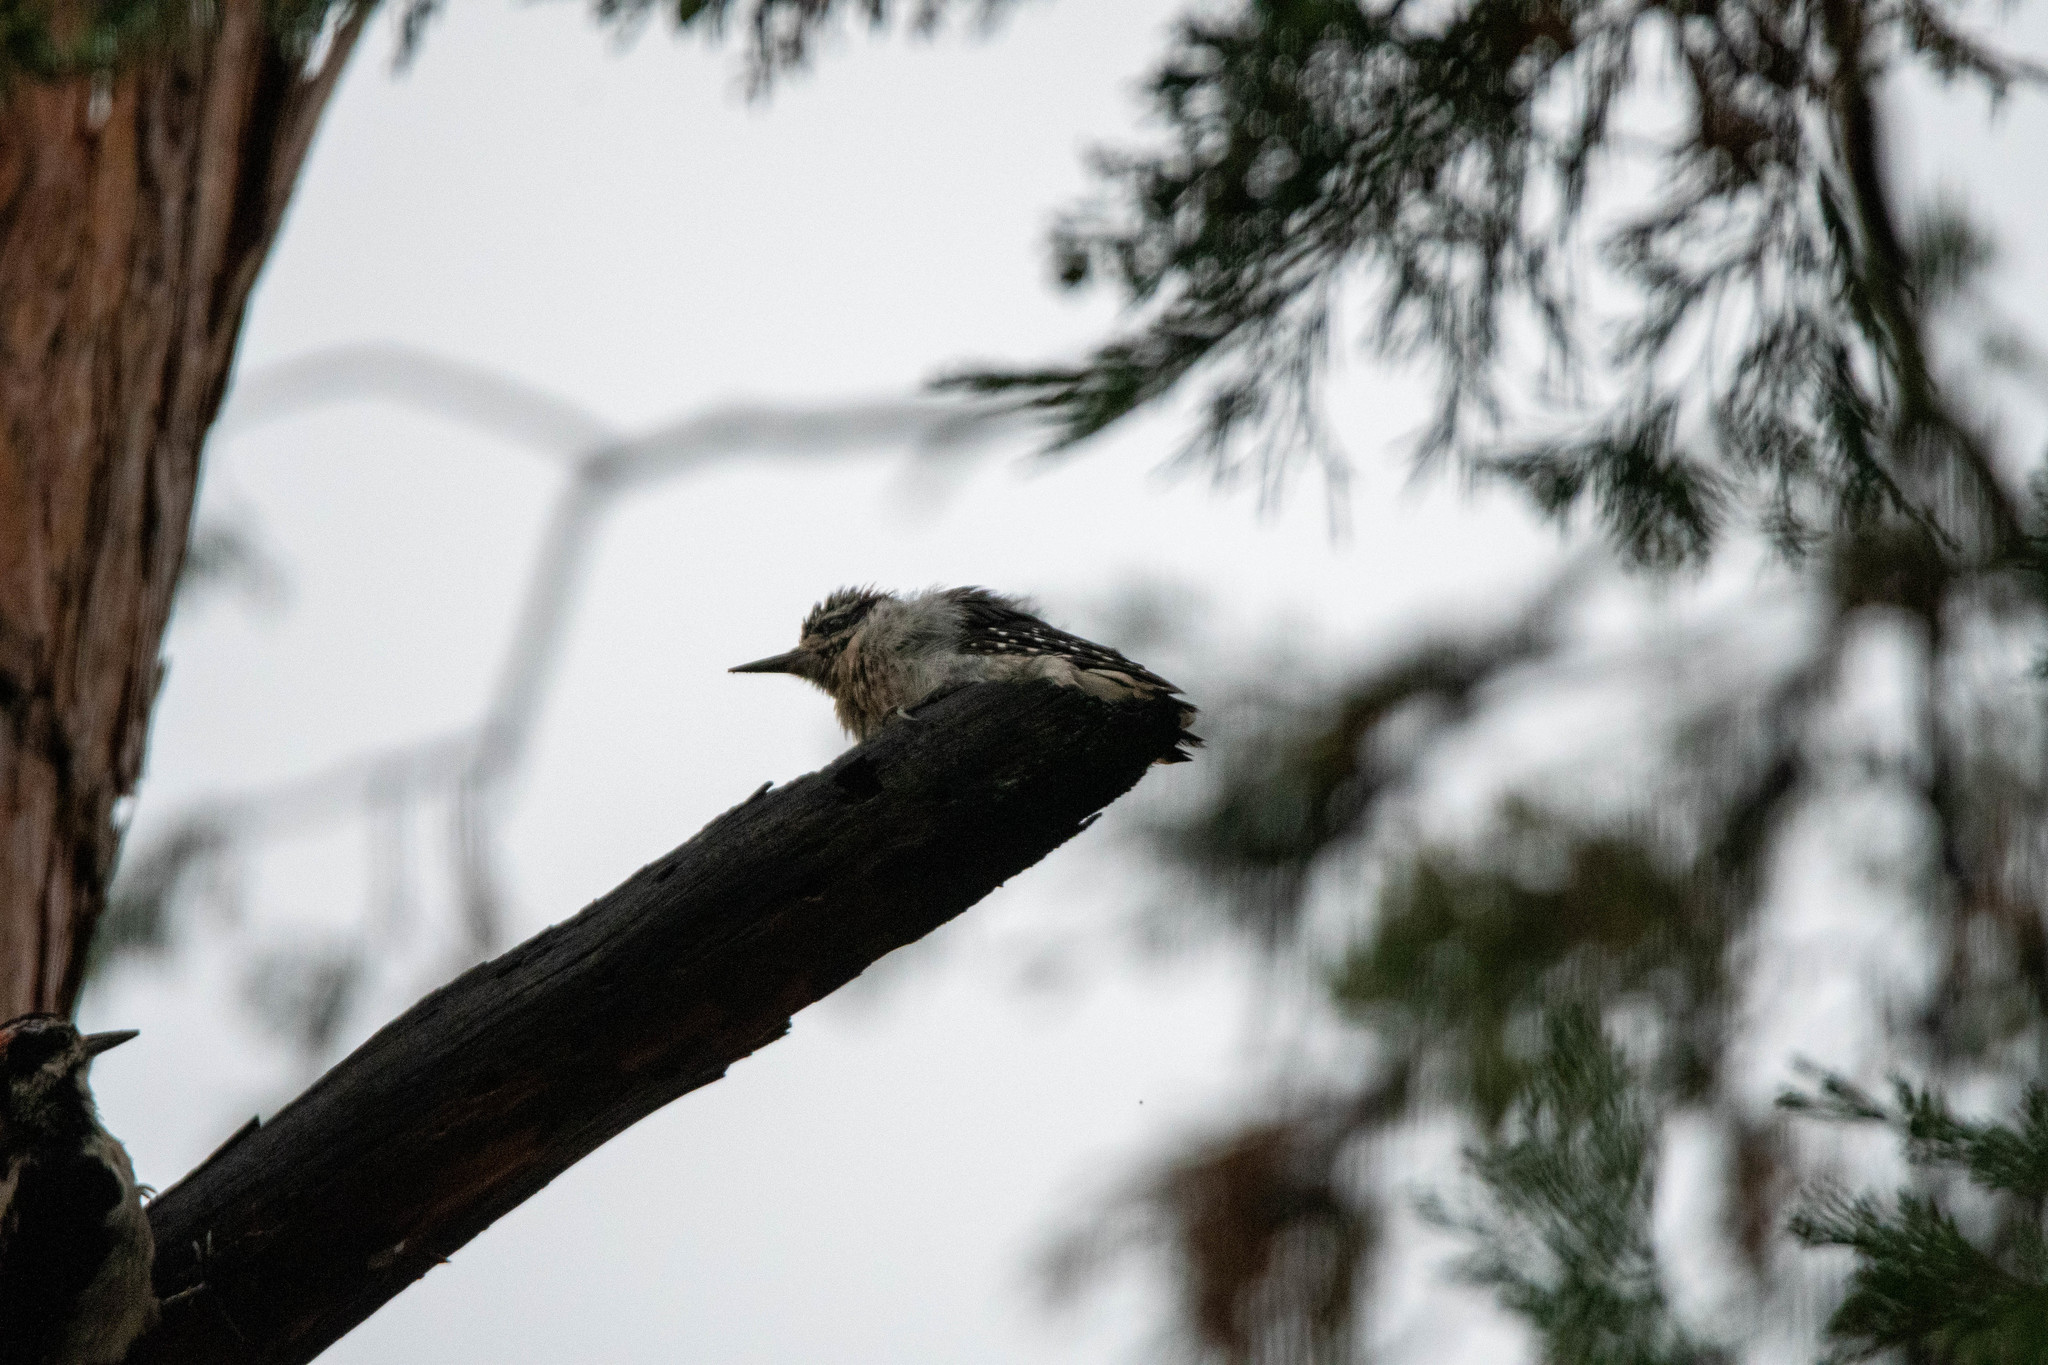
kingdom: Animalia
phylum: Chordata
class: Aves
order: Piciformes
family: Picidae
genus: Leuconotopicus
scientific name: Leuconotopicus villosus
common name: Hairy woodpecker
